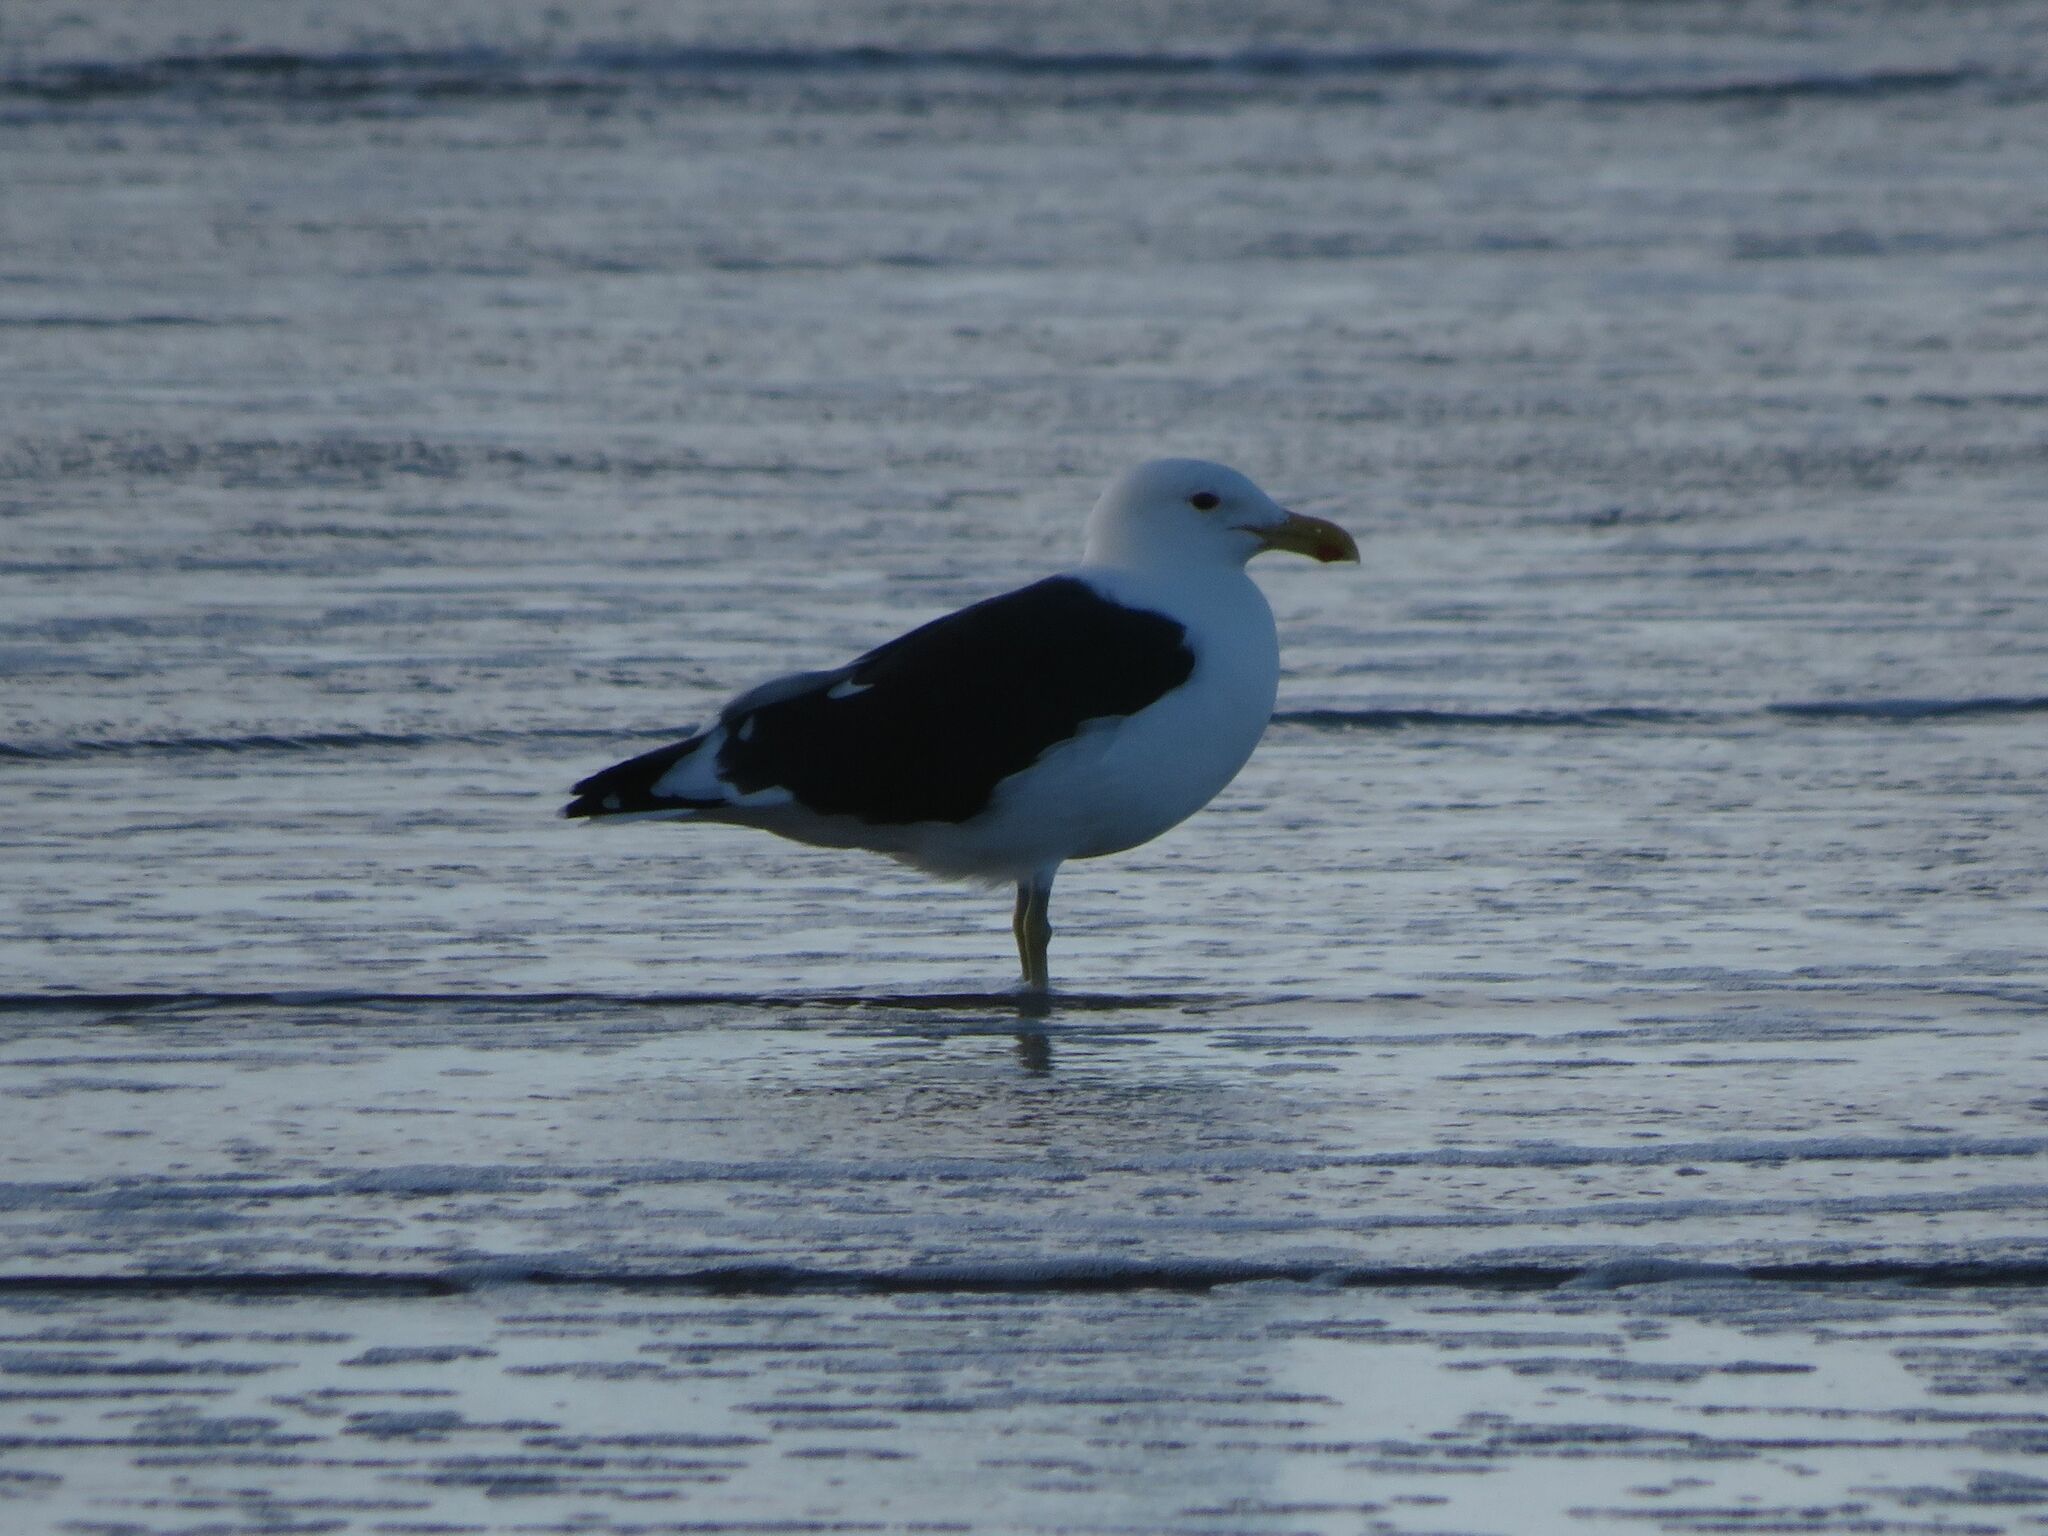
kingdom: Animalia
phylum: Chordata
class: Aves
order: Charadriiformes
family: Laridae
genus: Larus
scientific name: Larus dominicanus
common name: Kelp gull
